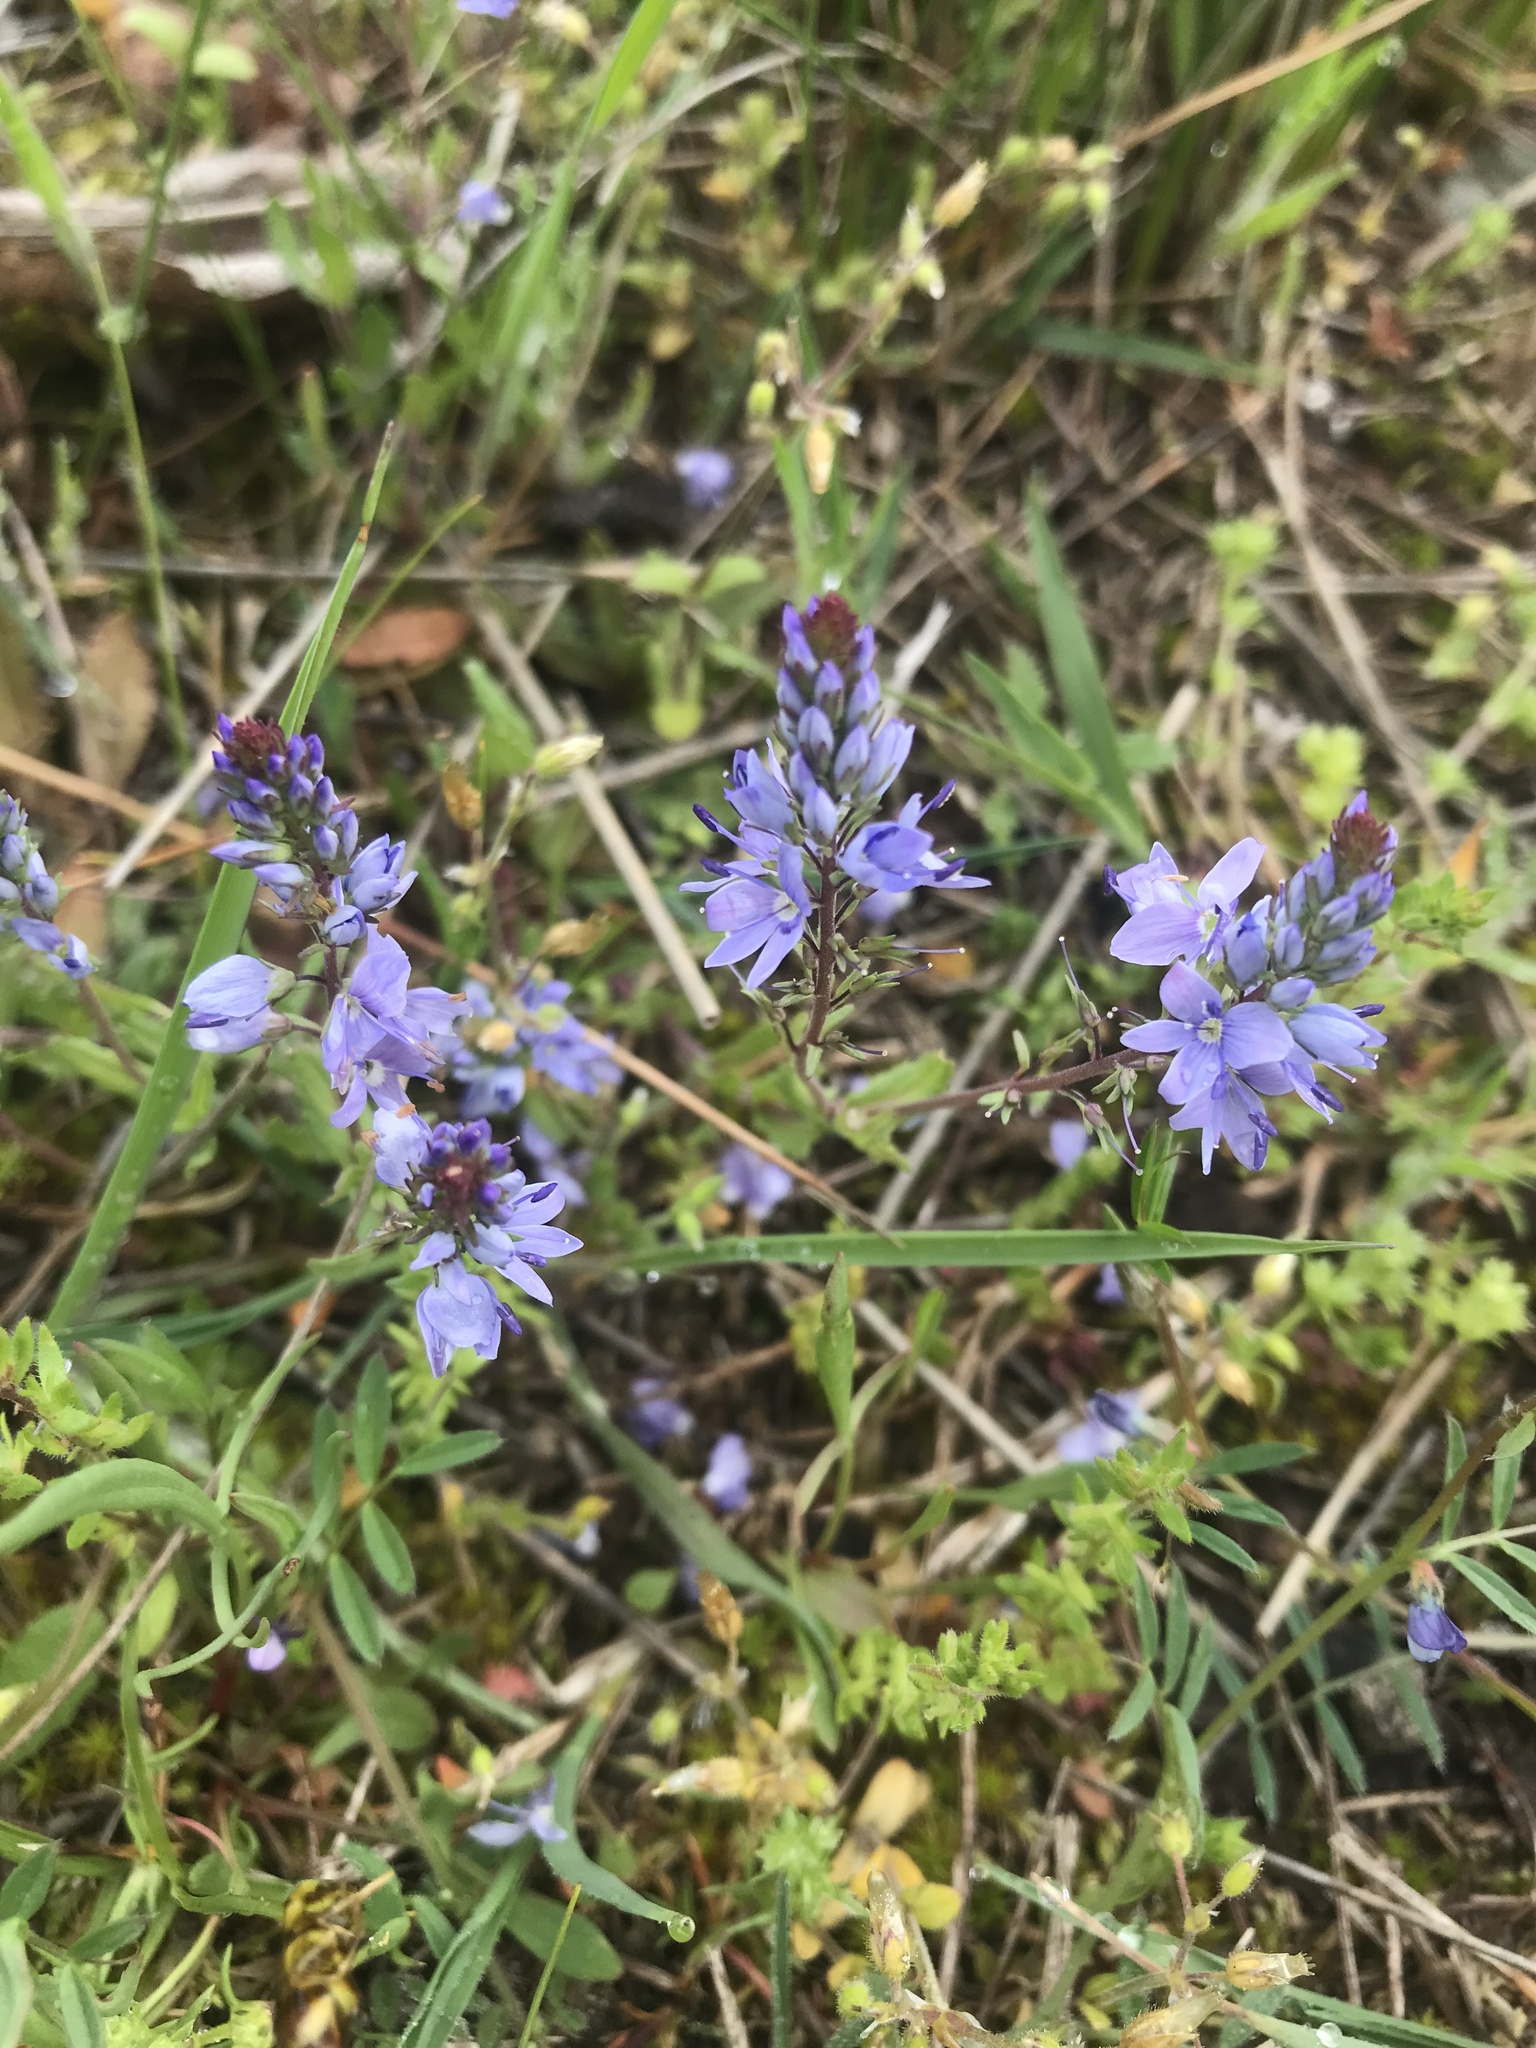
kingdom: Plantae
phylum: Tracheophyta
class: Magnoliopsida
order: Lamiales
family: Plantaginaceae
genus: Veronica
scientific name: Veronica prostrata
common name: Prostrate speedwell
